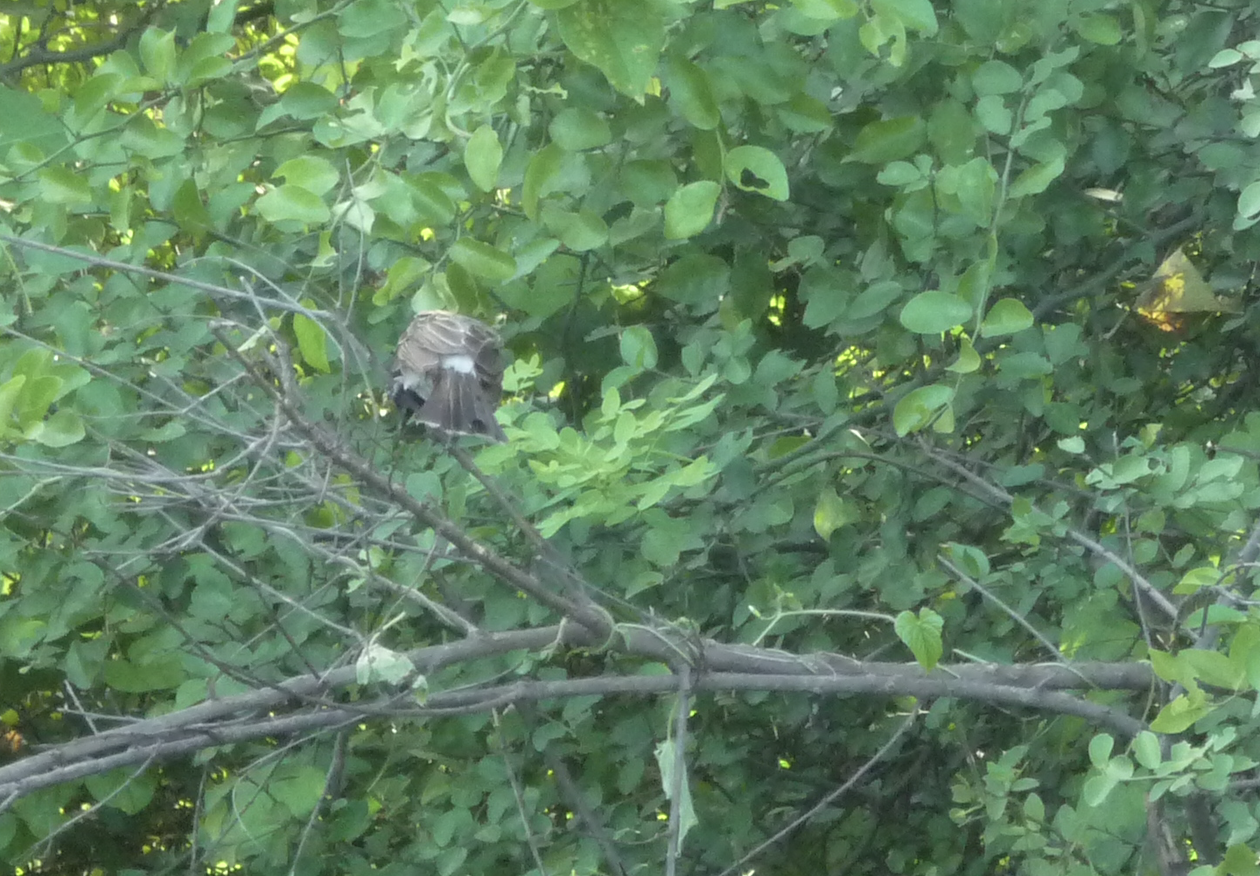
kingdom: Animalia
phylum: Chordata
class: Aves
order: Passeriformes
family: Pycnonotidae
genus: Pycnonotus
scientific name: Pycnonotus cafer
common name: Red-vented bulbul
